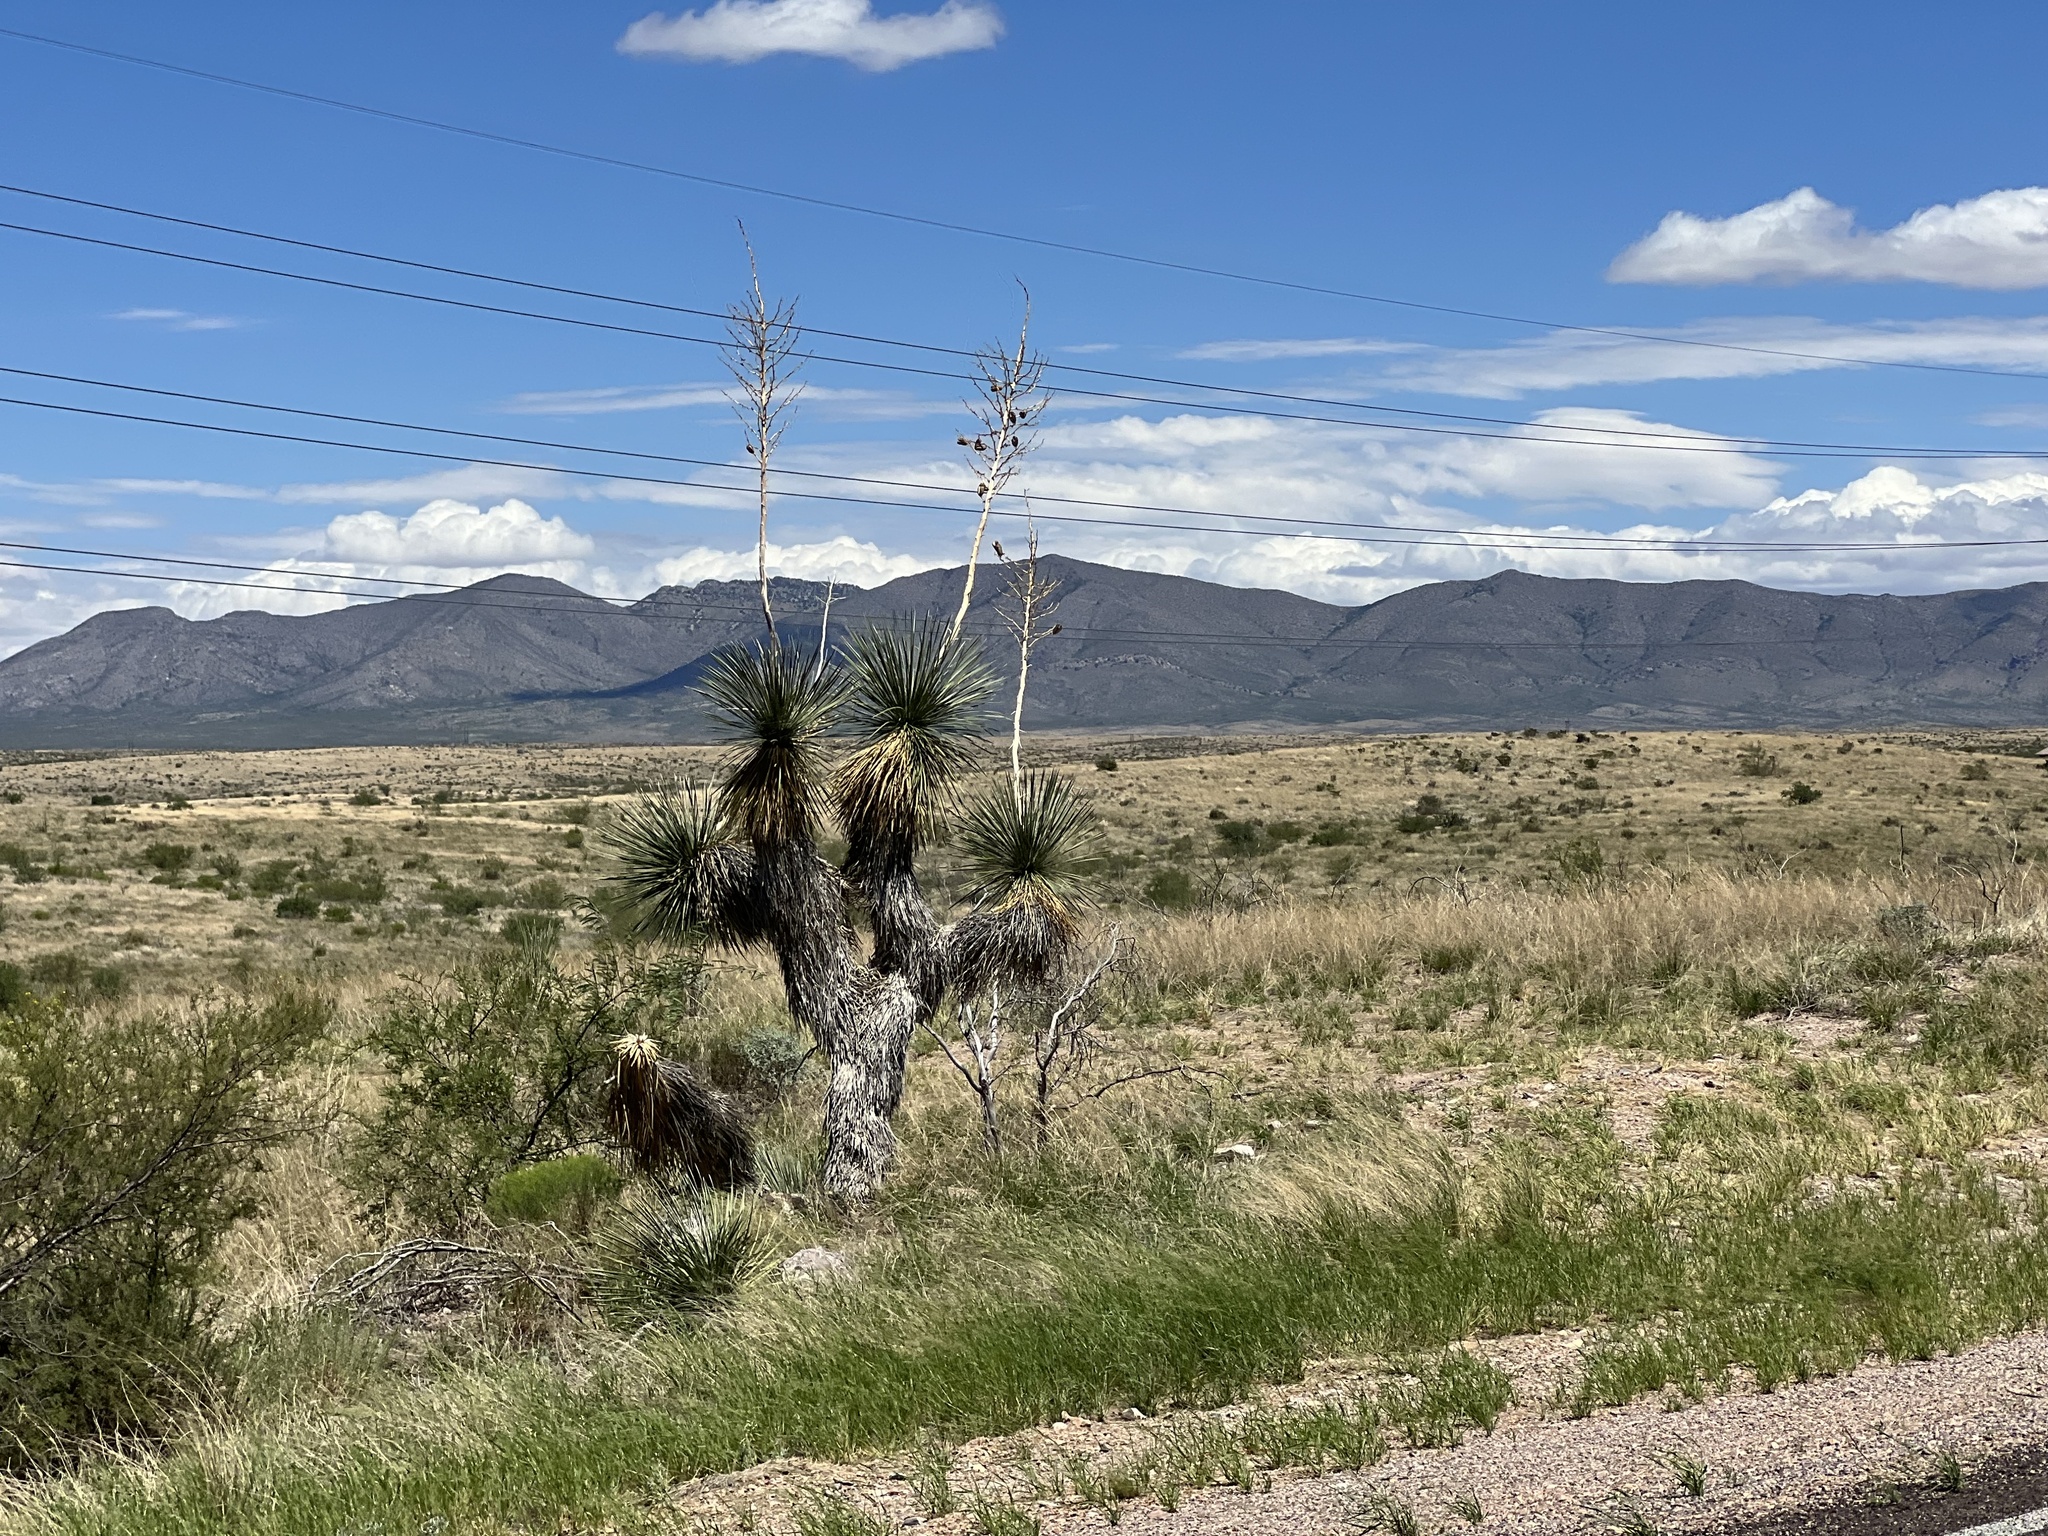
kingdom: Plantae
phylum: Tracheophyta
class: Liliopsida
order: Asparagales
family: Asparagaceae
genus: Yucca
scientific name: Yucca elata
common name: Palmella
